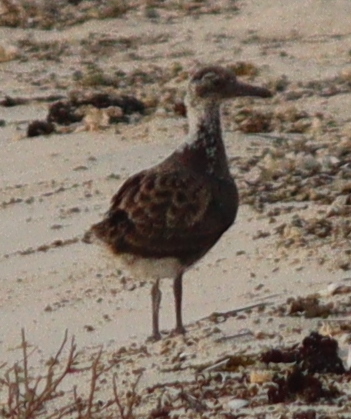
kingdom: Animalia
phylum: Chordata
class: Aves
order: Charadriiformes
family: Laridae
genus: Ichthyaetus
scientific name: Ichthyaetus leucophthalmus
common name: White-eyed gull
